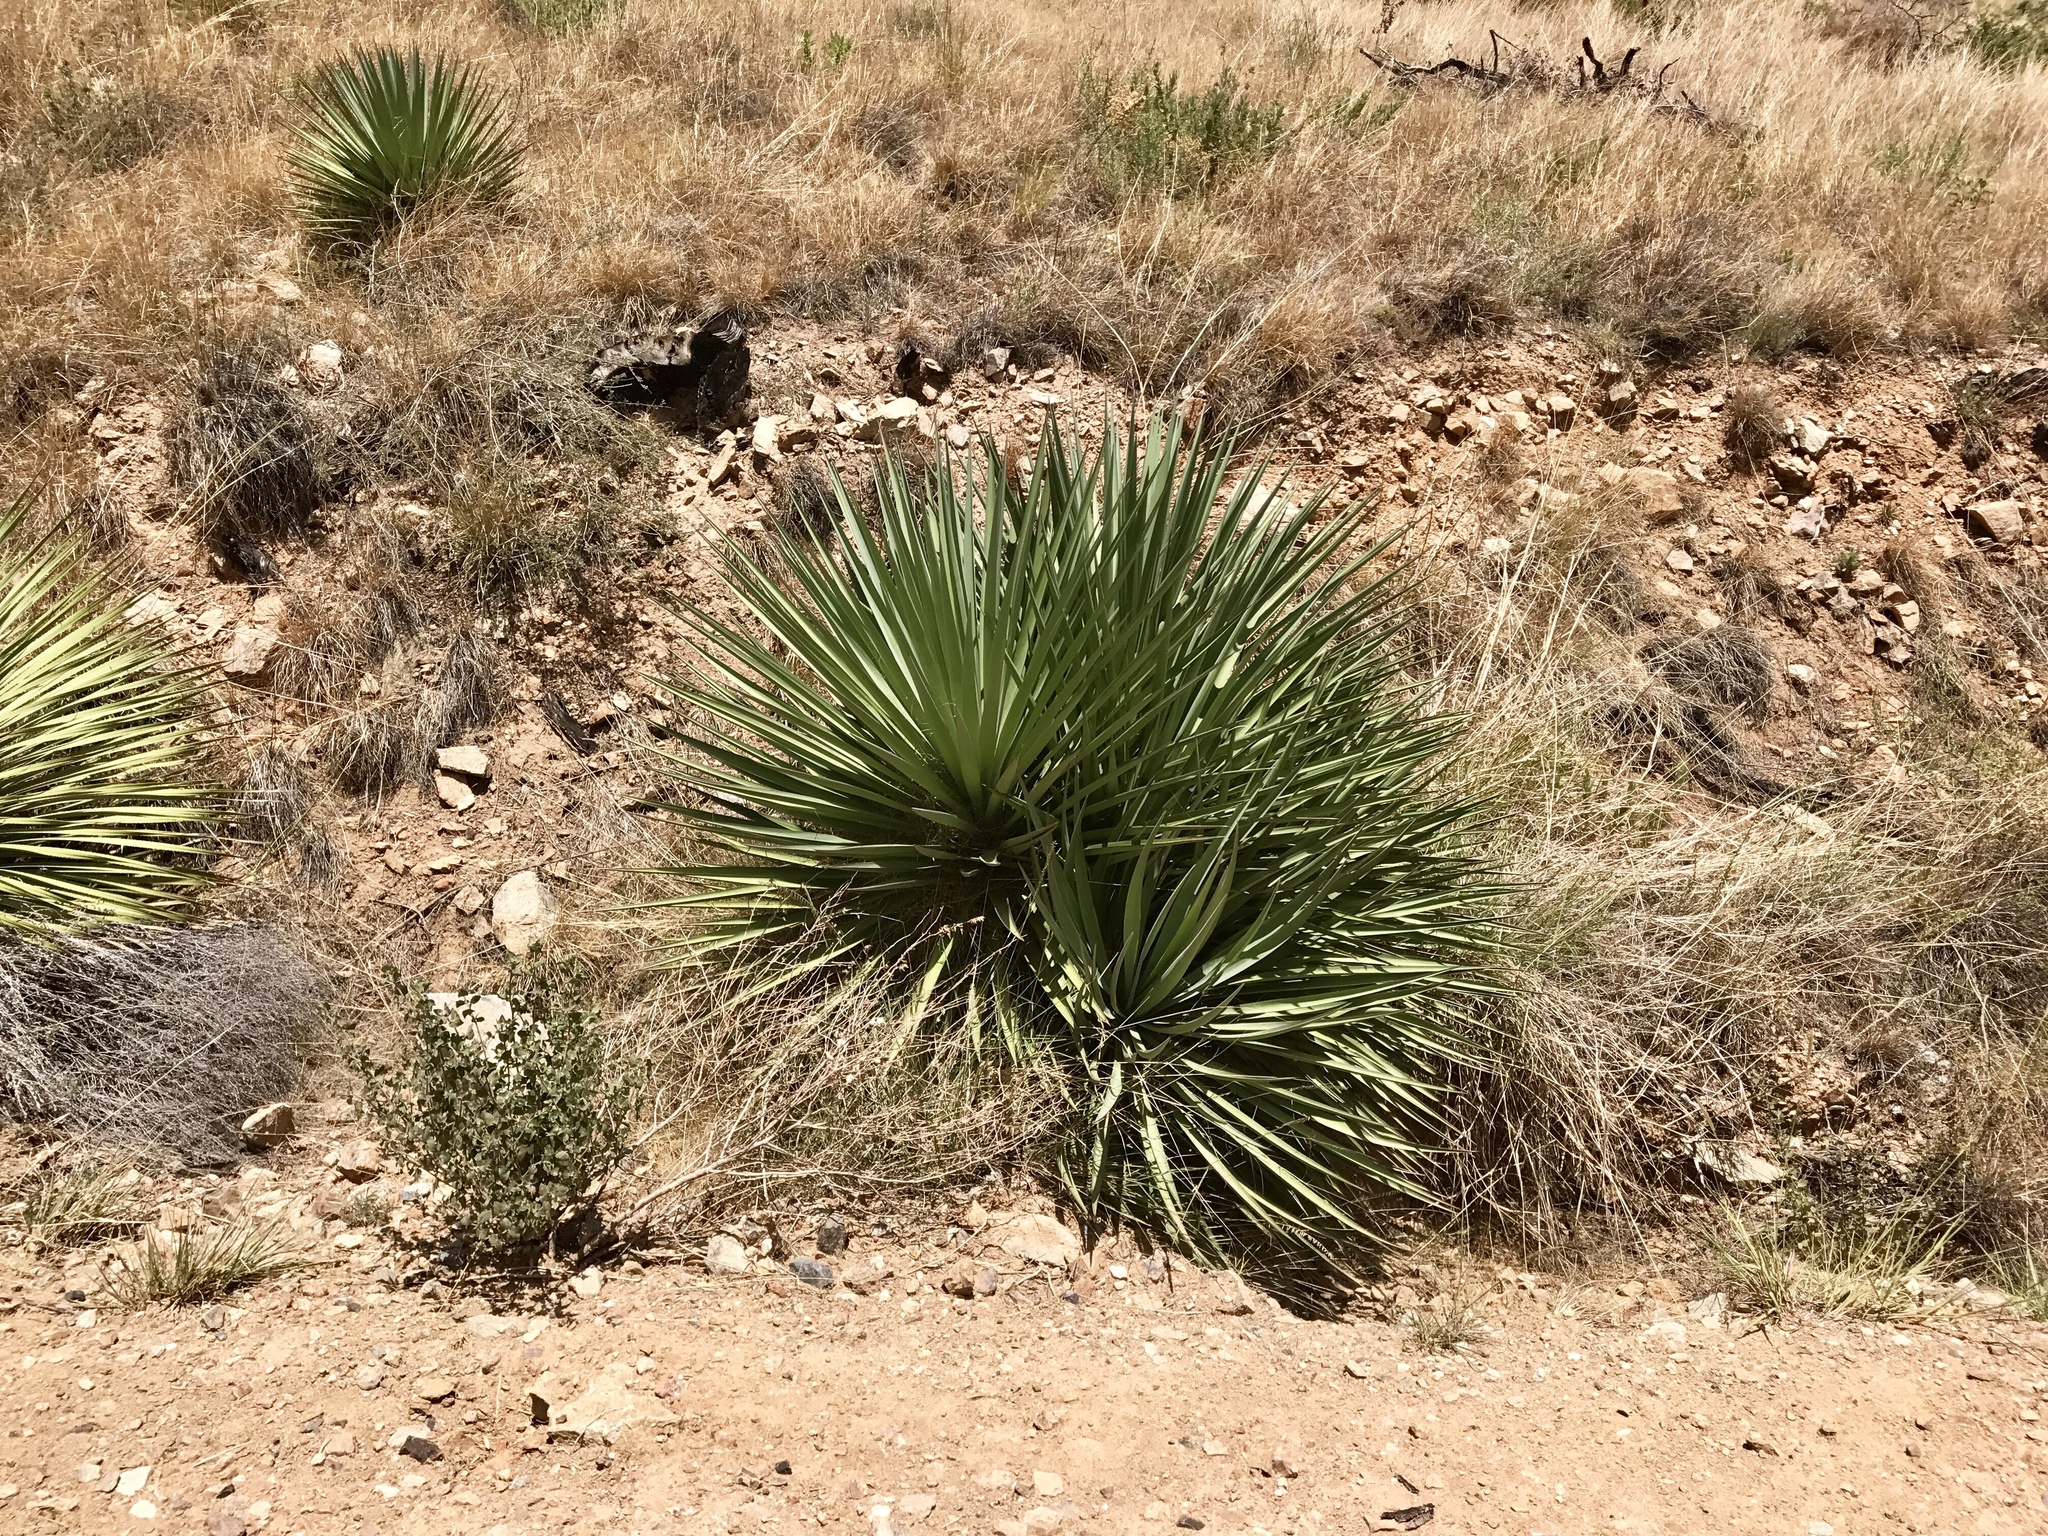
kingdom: Plantae
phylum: Tracheophyta
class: Liliopsida
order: Asparagales
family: Asparagaceae
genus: Yucca
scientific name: Yucca schottii
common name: Hoary yucca
